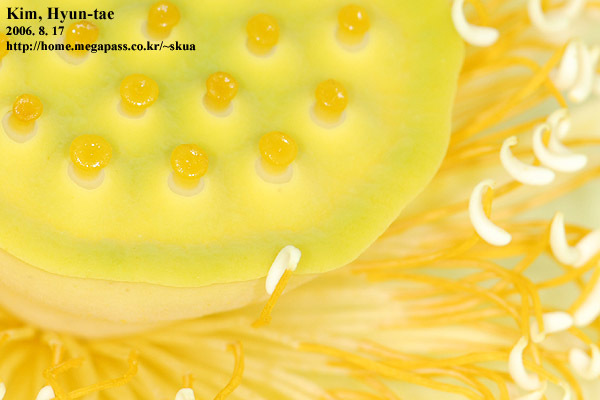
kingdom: Plantae
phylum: Tracheophyta
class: Magnoliopsida
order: Proteales
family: Nelumbonaceae
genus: Nelumbo
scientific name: Nelumbo nucifera
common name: Sacred lotus
